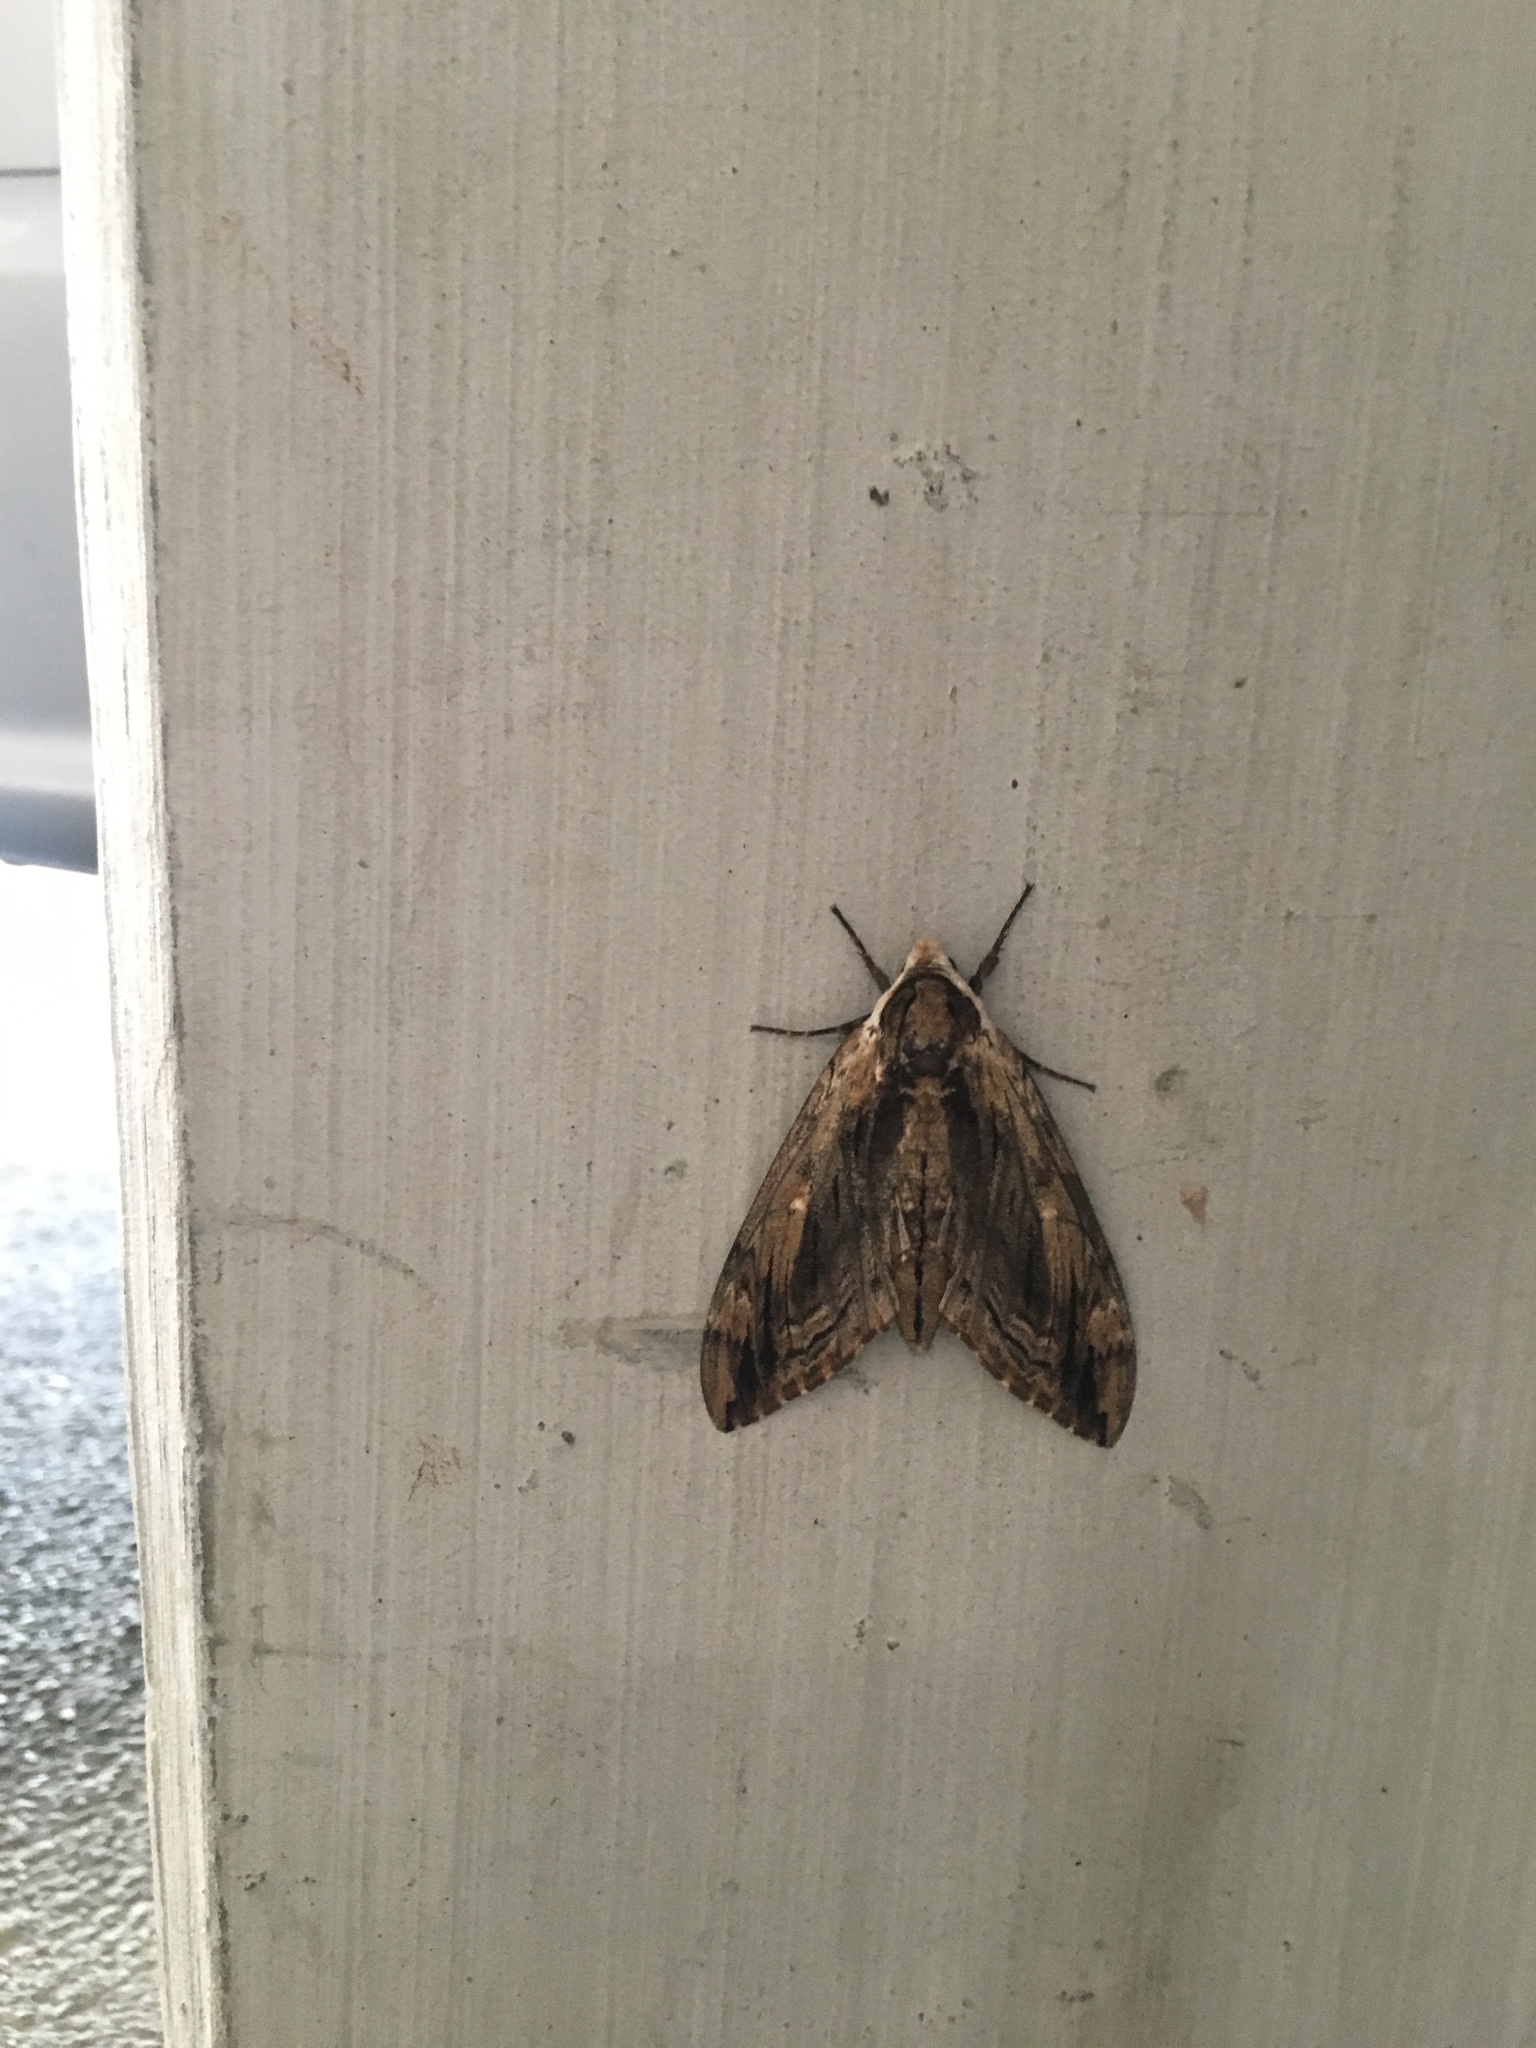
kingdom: Animalia
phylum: Arthropoda
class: Insecta
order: Lepidoptera
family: Sphingidae
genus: Ceratomia
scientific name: Ceratomia amyntor
